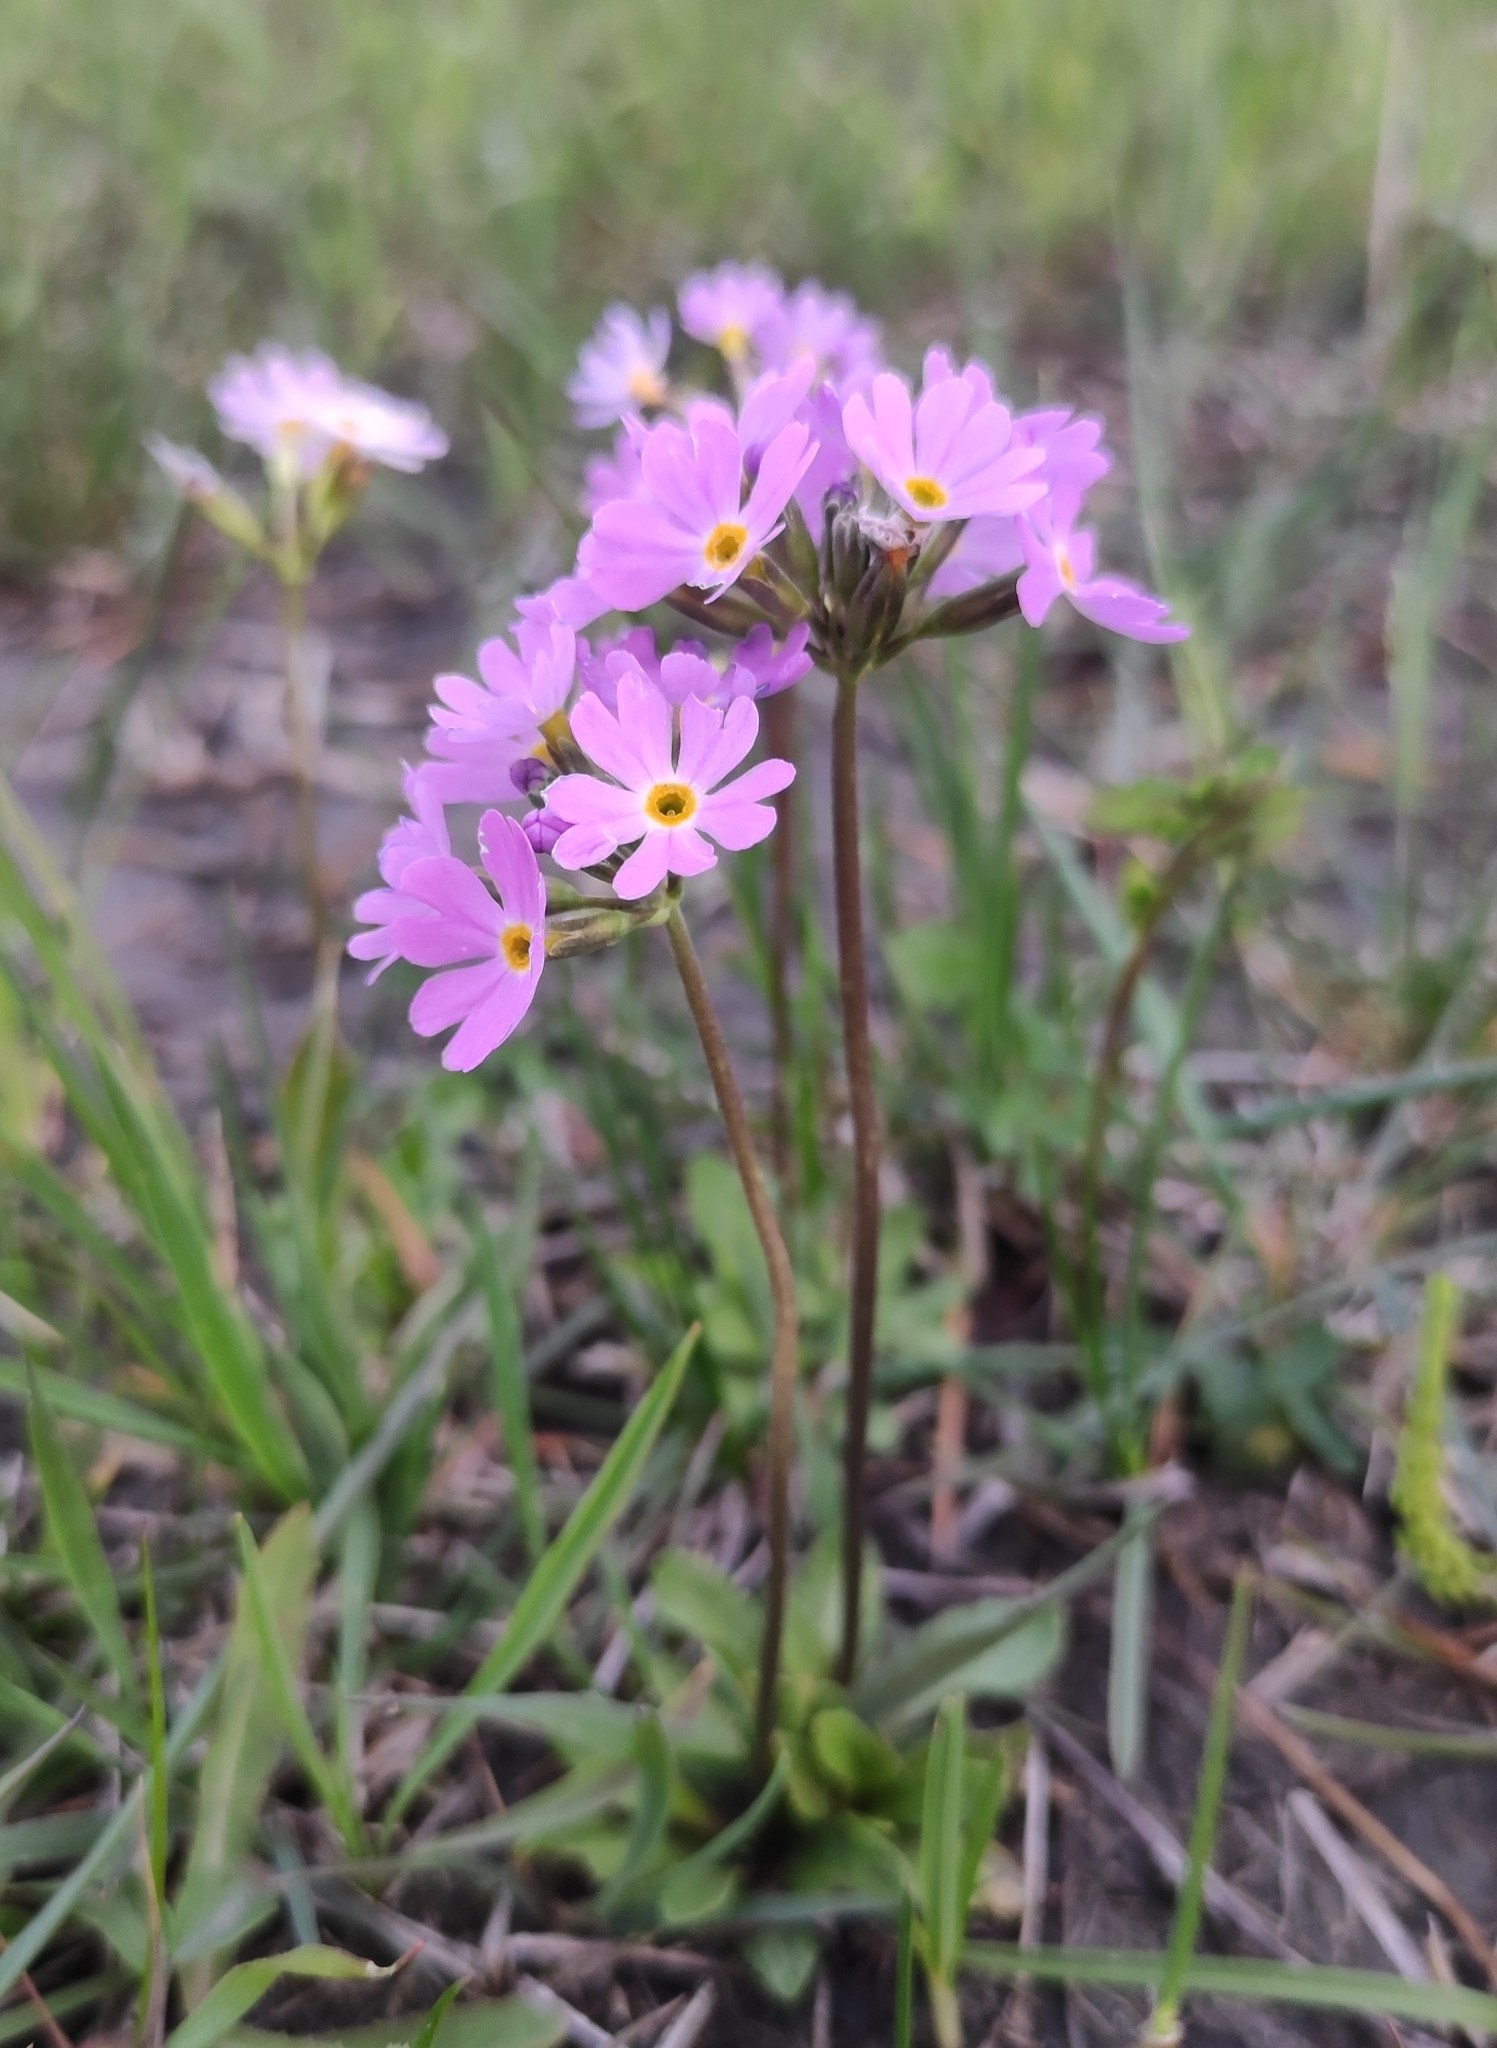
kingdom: Plantae
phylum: Tracheophyta
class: Magnoliopsida
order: Ericales
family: Primulaceae
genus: Primula
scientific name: Primula farinosa
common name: Bird's-eye primrose
